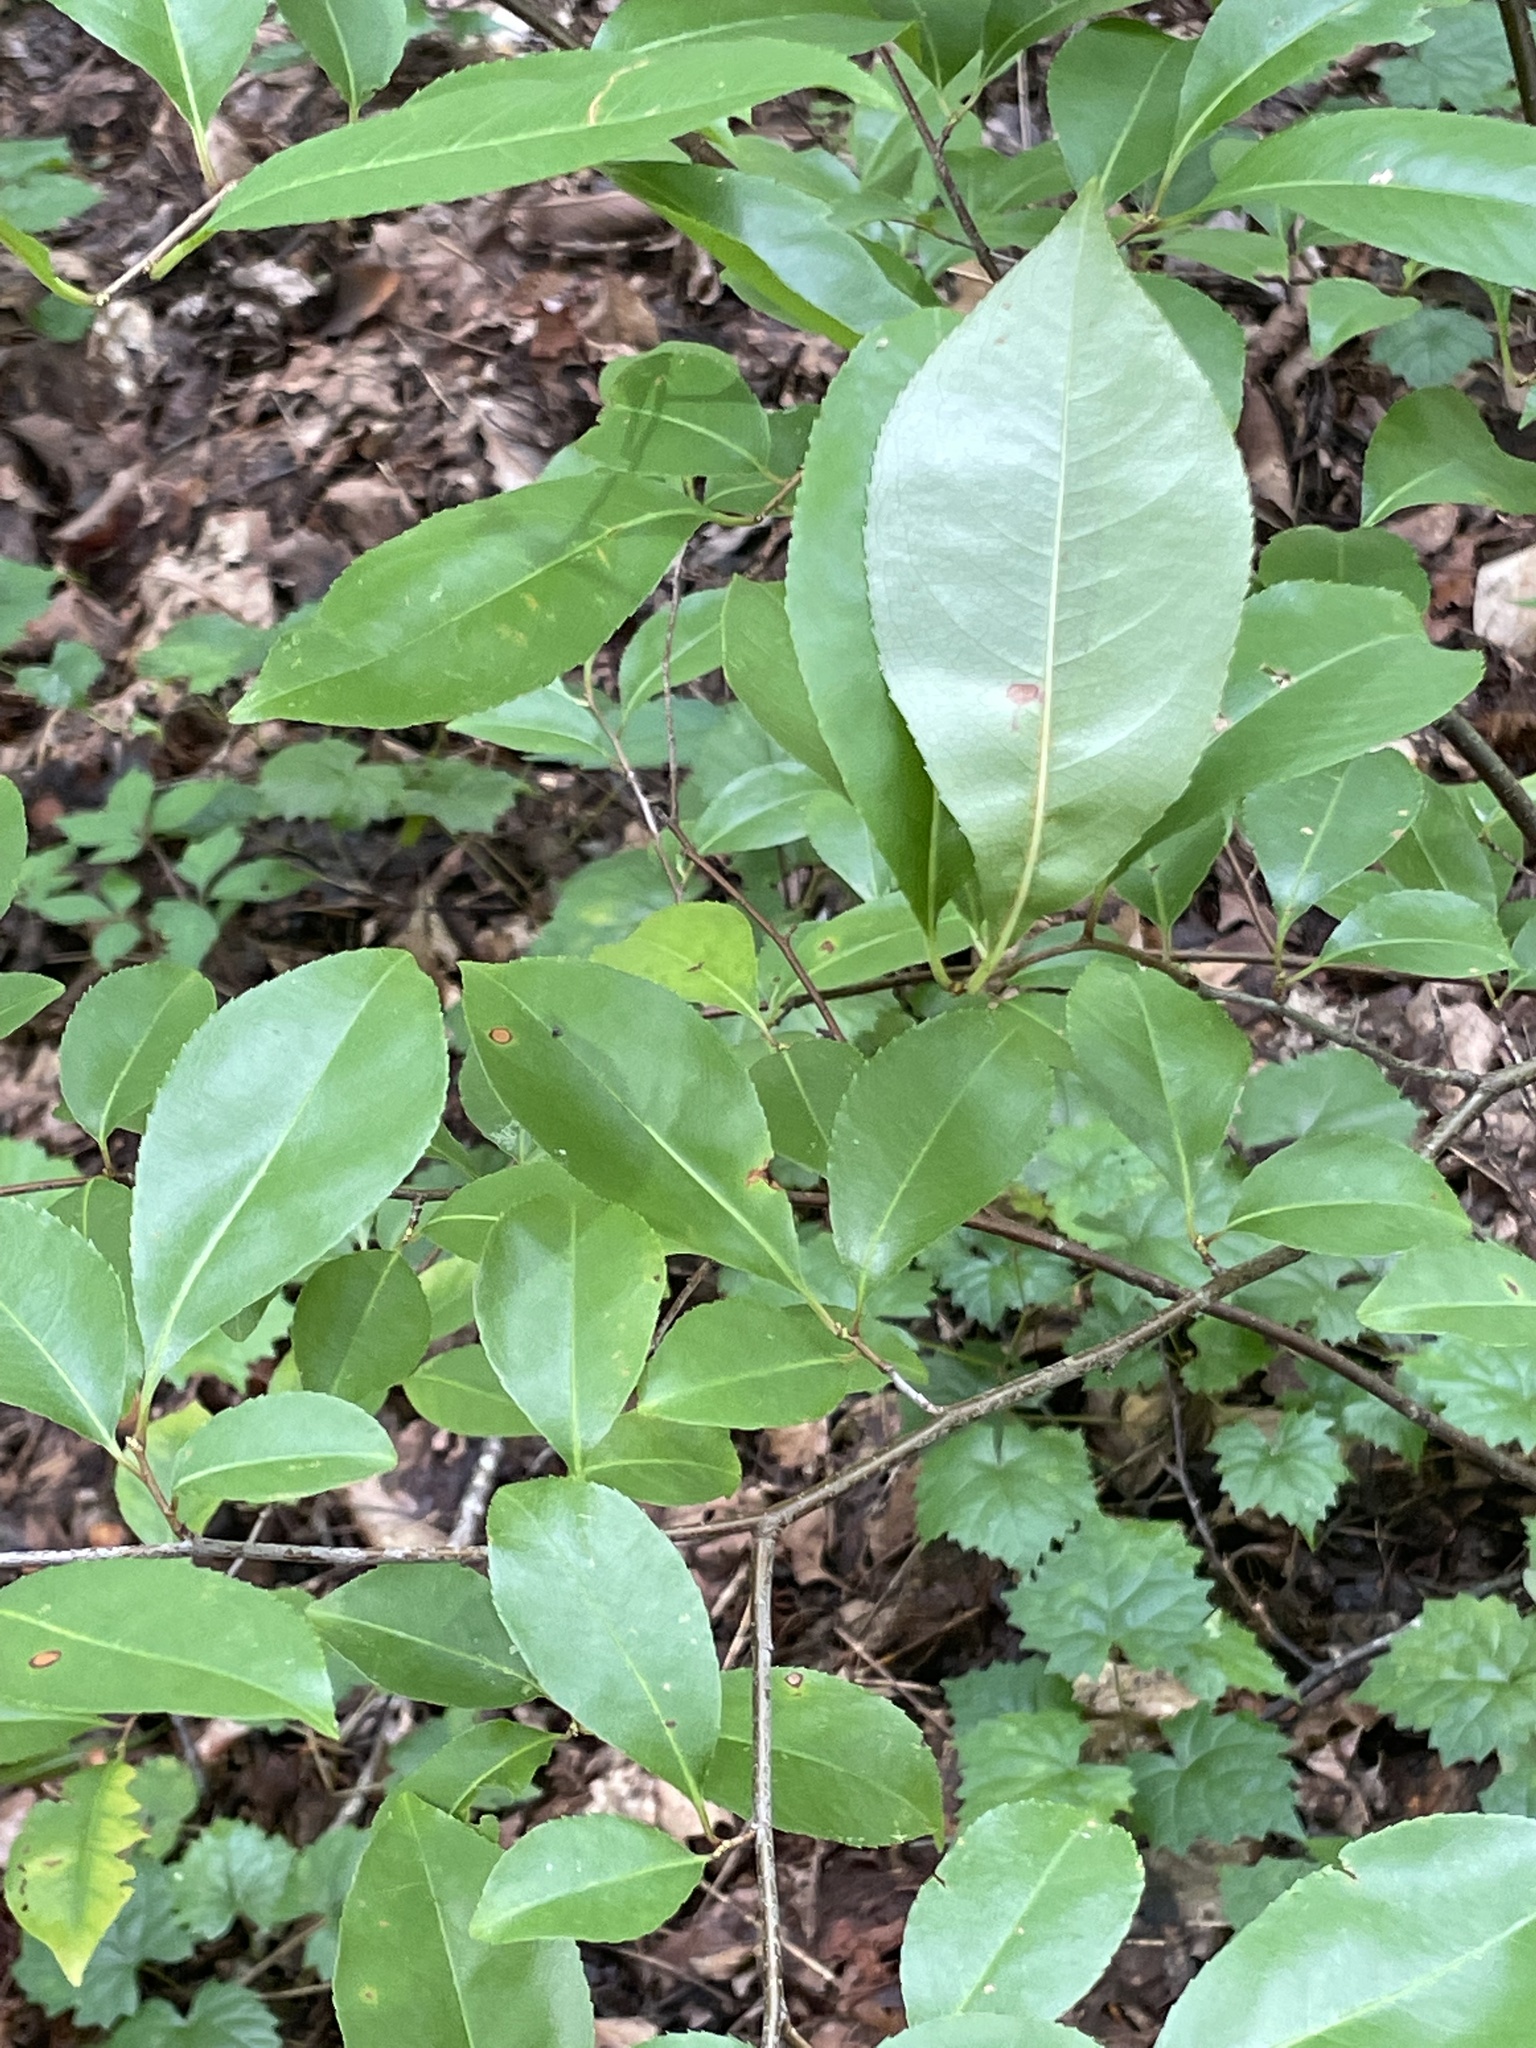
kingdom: Plantae
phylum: Tracheophyta
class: Magnoliopsida
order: Rosales
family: Rosaceae
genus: Prunus
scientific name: Prunus serotina
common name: Black cherry
